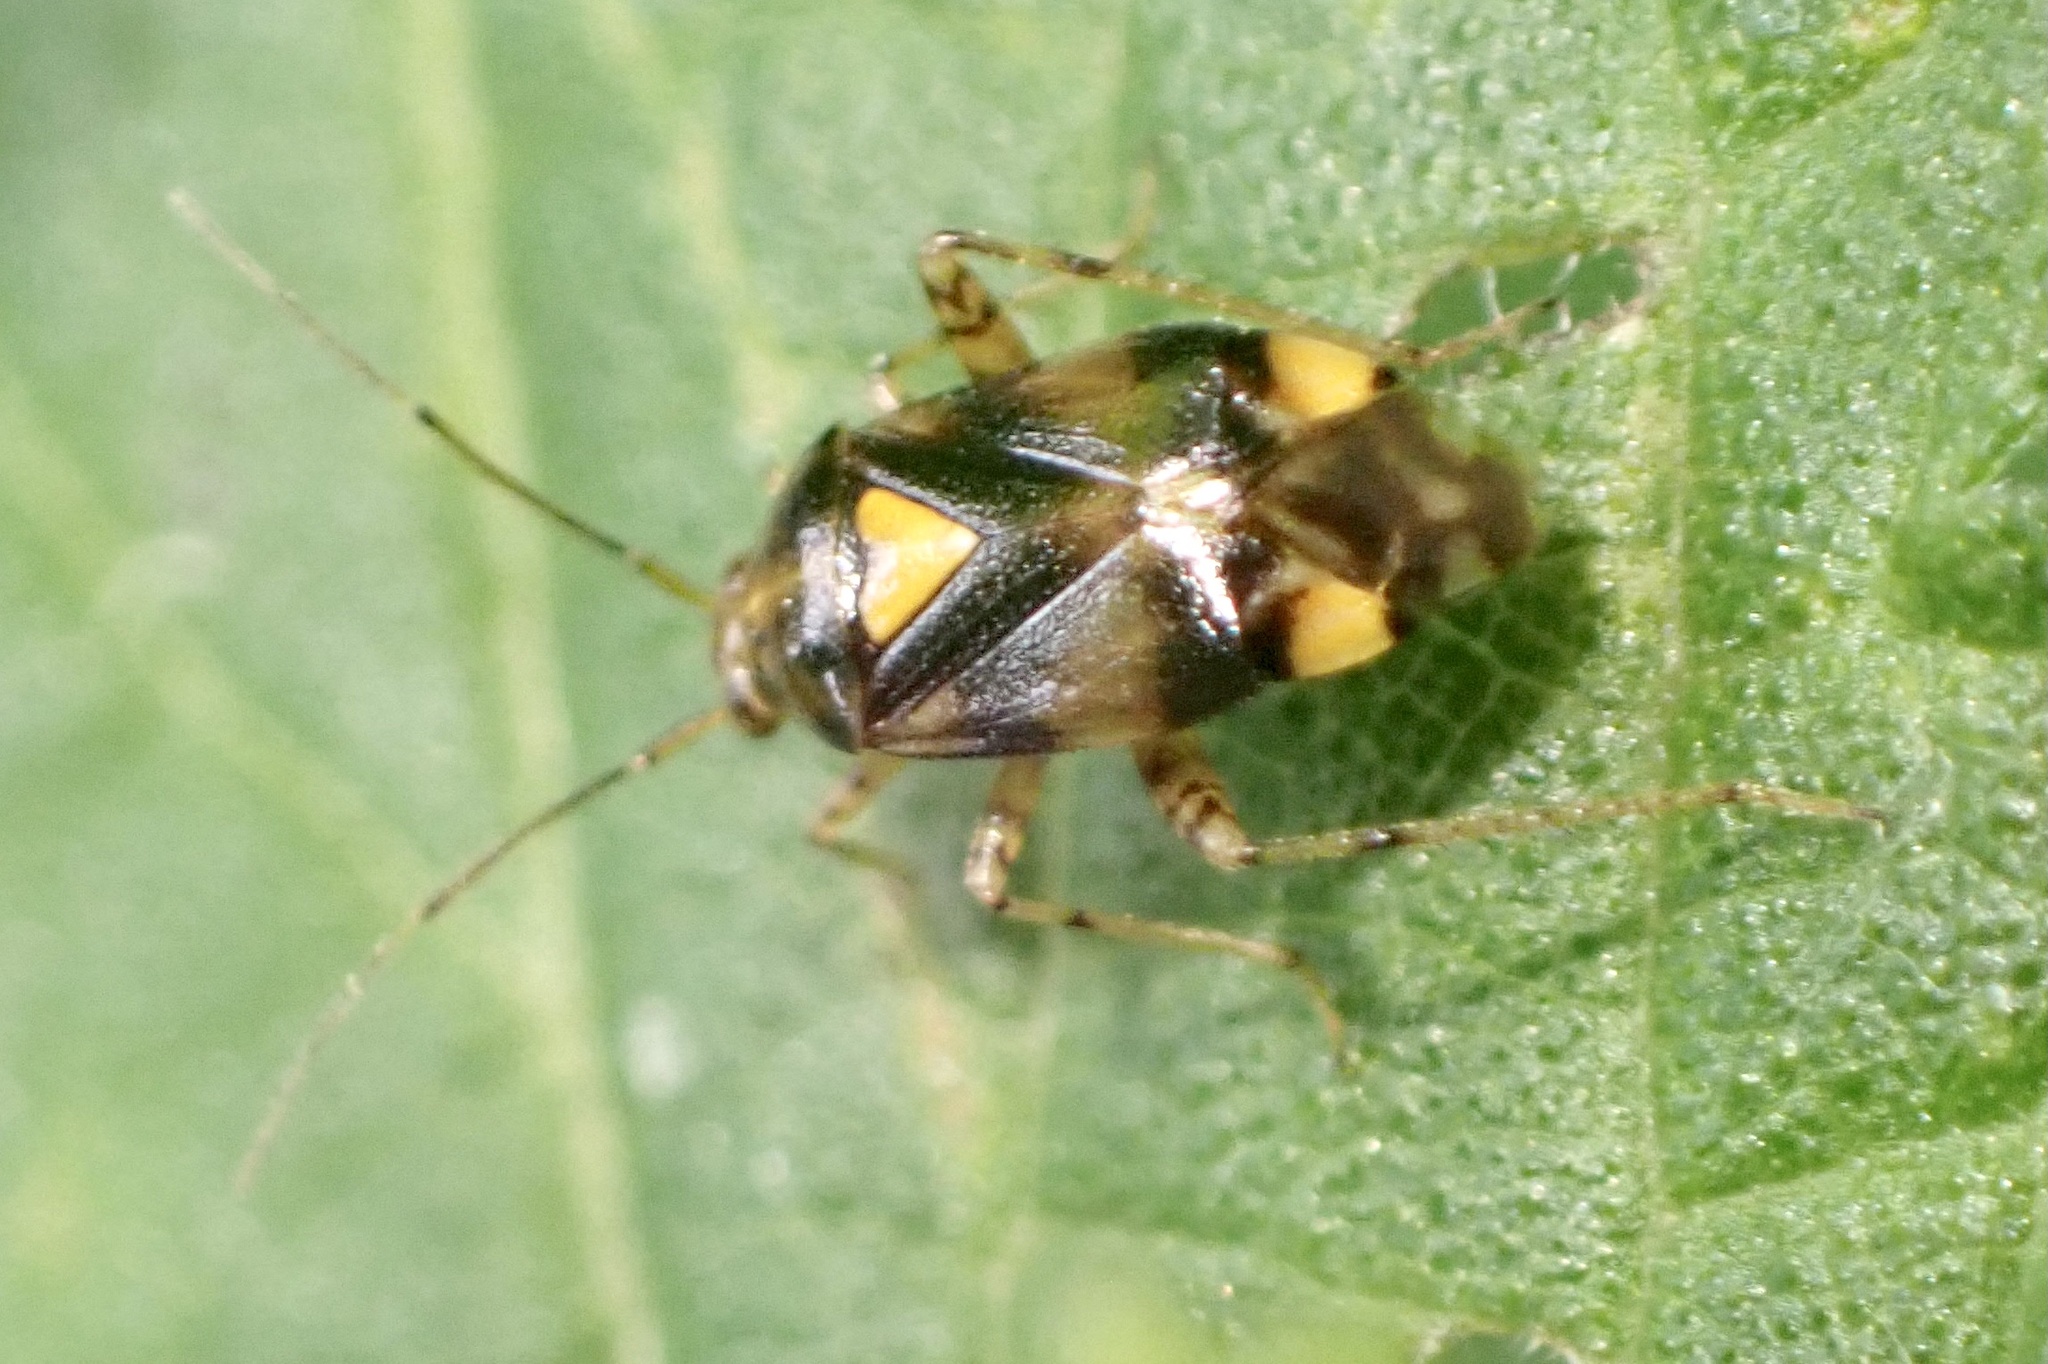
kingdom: Animalia
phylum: Arthropoda
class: Insecta
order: Hemiptera
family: Miridae
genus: Liocoris
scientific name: Liocoris tripustulatus
